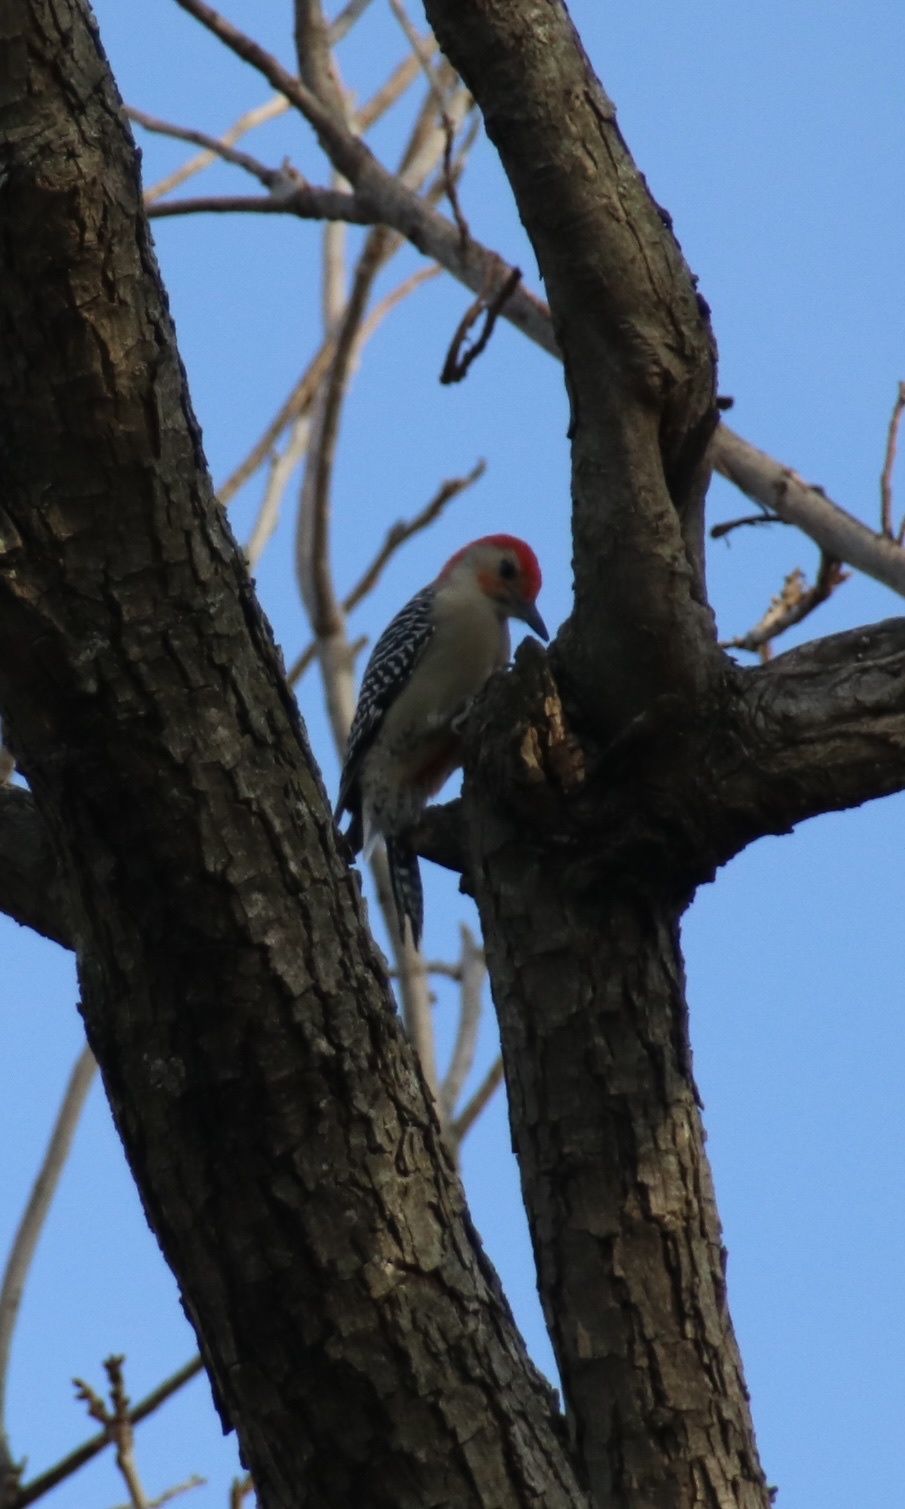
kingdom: Animalia
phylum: Chordata
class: Aves
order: Piciformes
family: Picidae
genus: Melanerpes
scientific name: Melanerpes carolinus
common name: Red-bellied woodpecker
